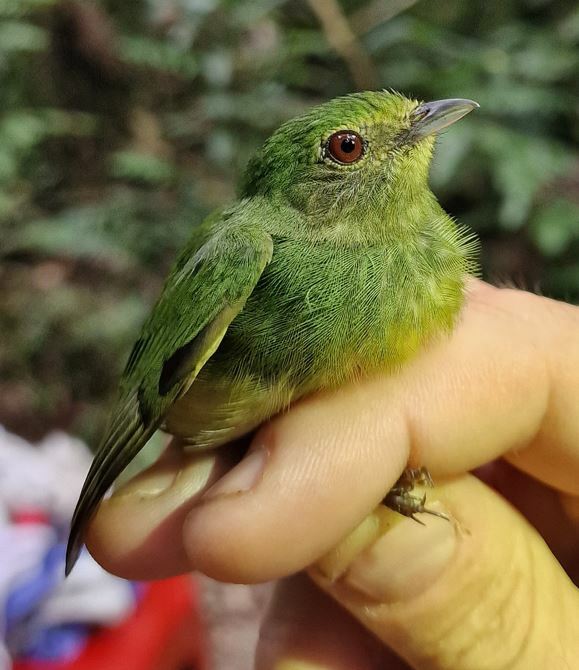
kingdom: Animalia
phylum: Chordata
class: Aves
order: Passeriformes
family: Pipridae
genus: Lepidothrix
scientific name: Lepidothrix coronata
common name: Blue-crowned manakin
